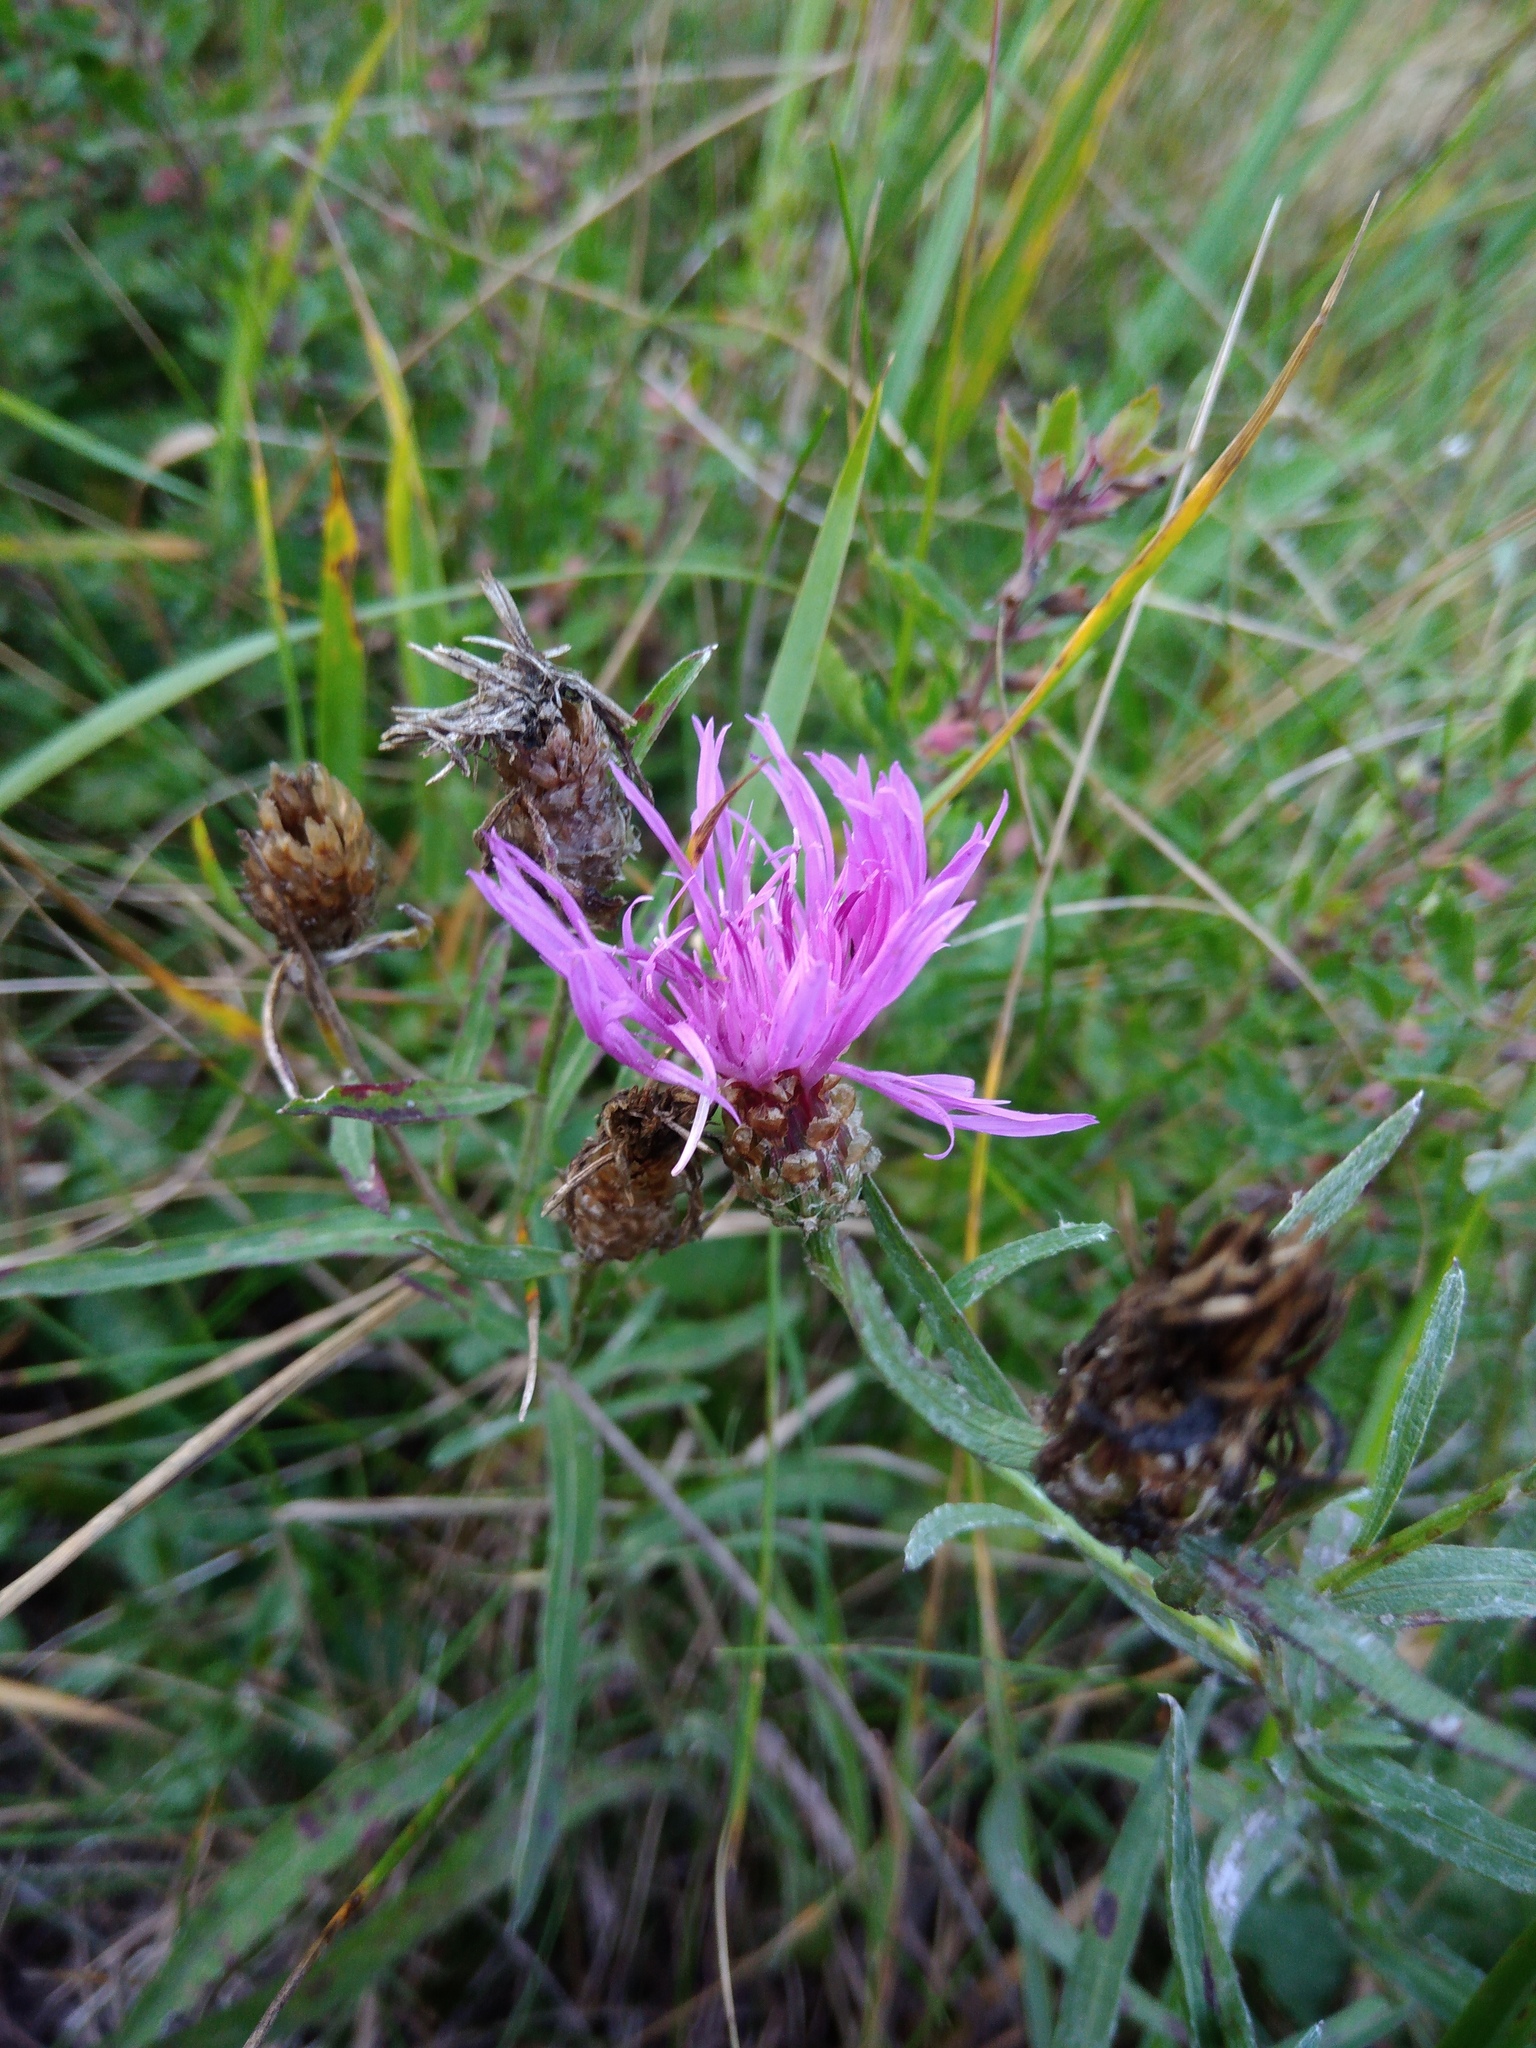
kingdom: Plantae
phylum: Tracheophyta
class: Magnoliopsida
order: Asterales
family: Asteraceae
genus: Centaurea
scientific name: Centaurea jacea
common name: Brown knapweed
